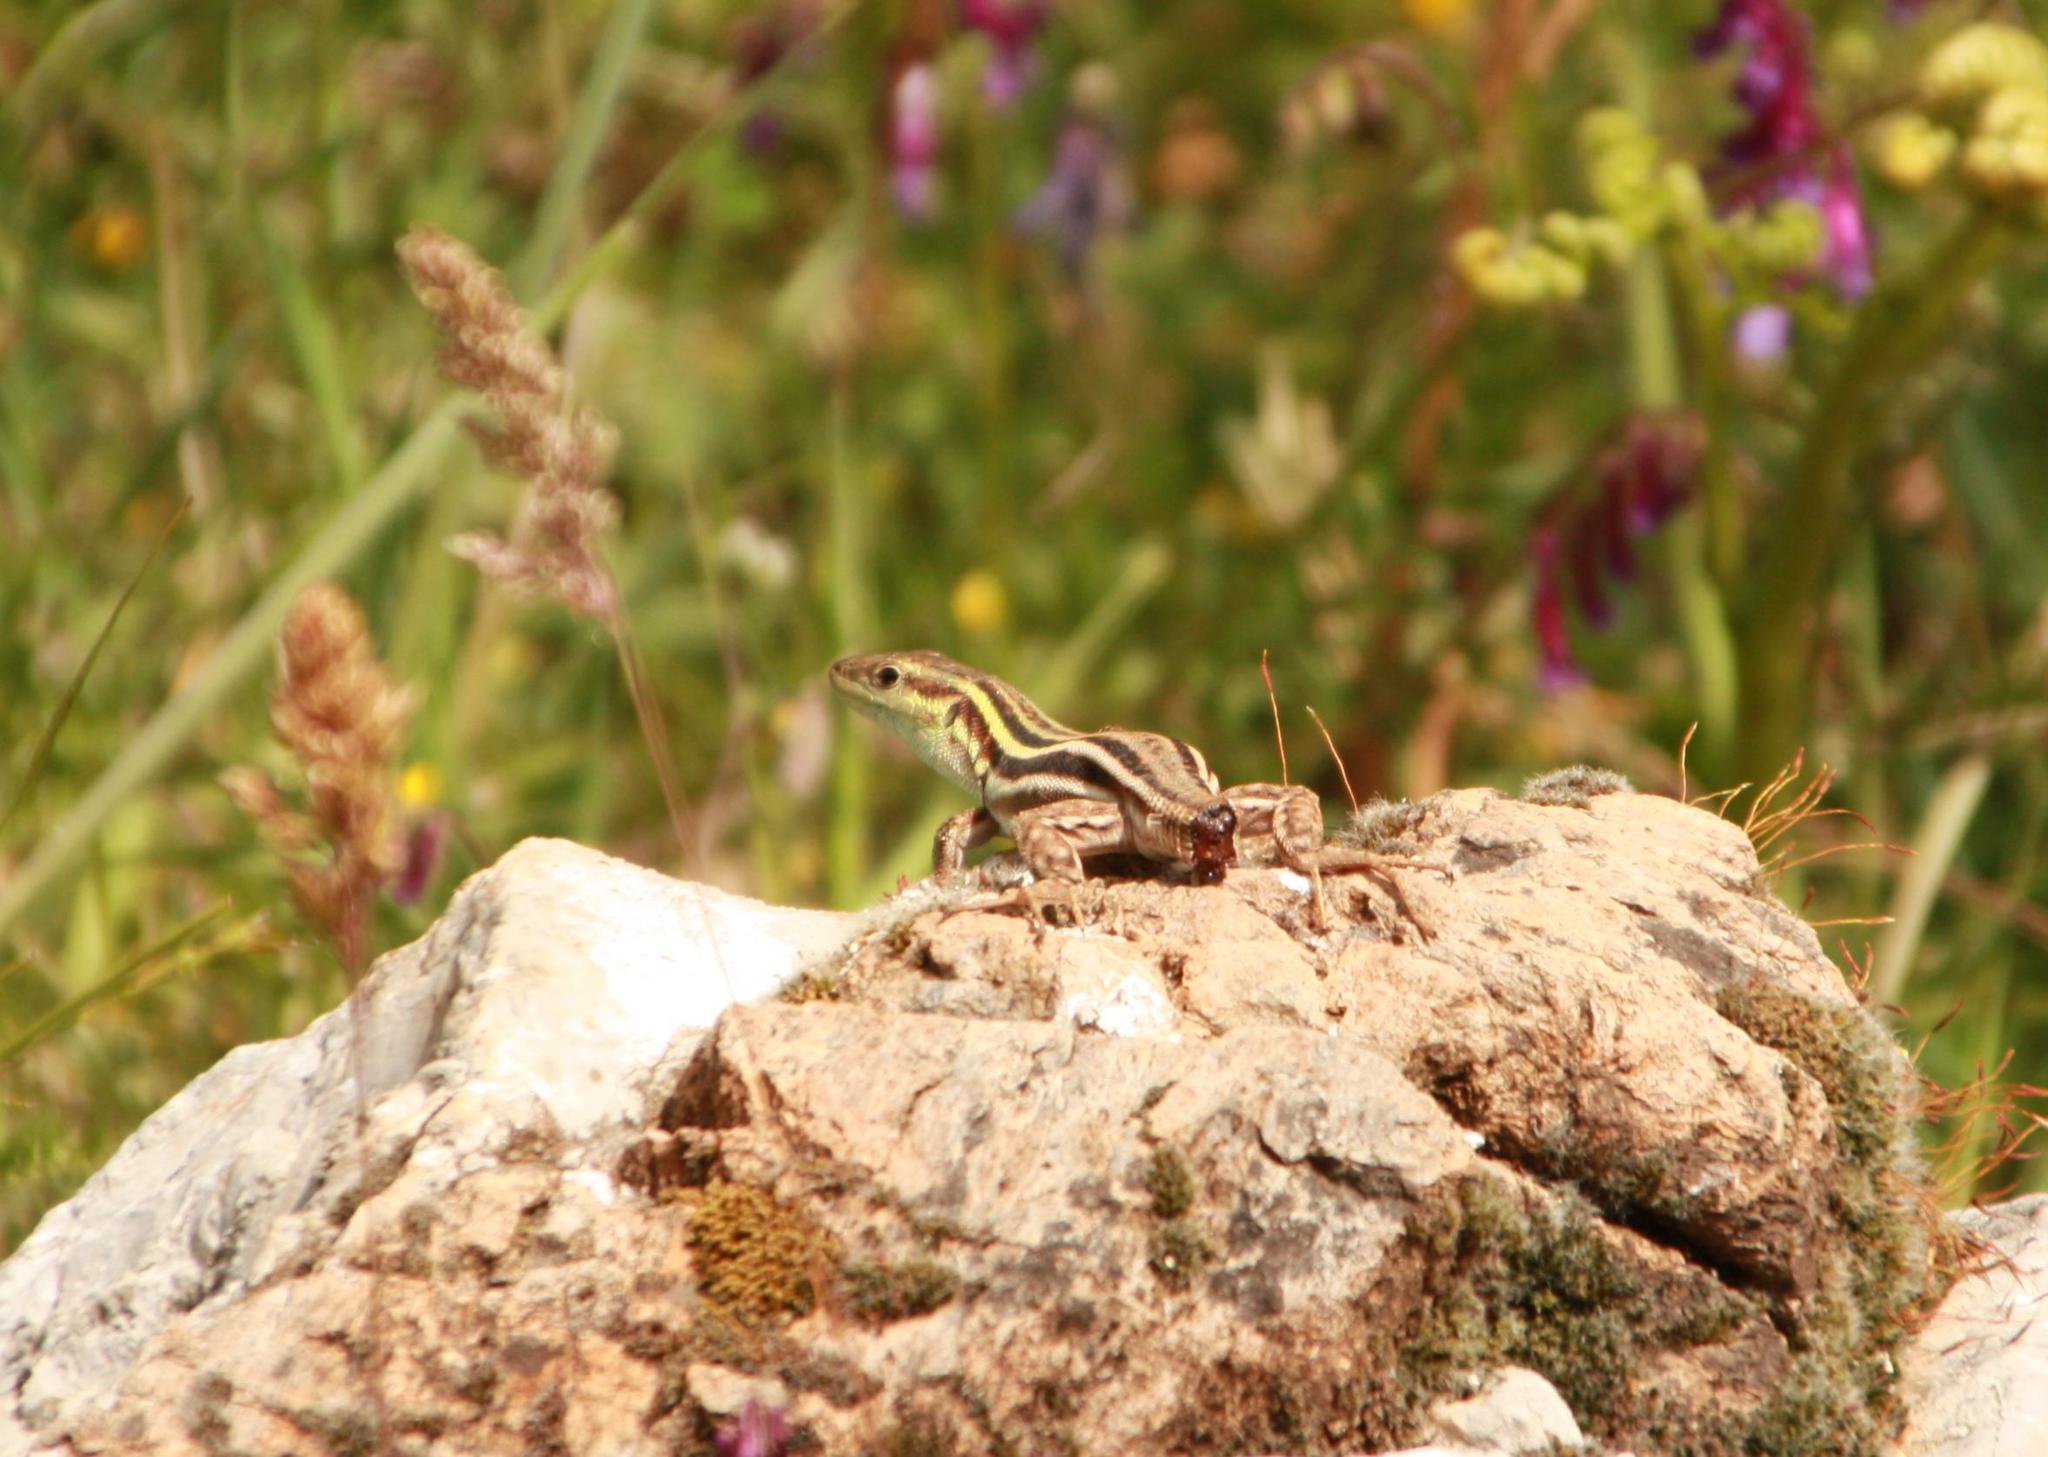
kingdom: Animalia
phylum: Chordata
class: Squamata
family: Lacertidae
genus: Podarcis
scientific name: Podarcis peloponnesiacus
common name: Peloponnese wall lizard
